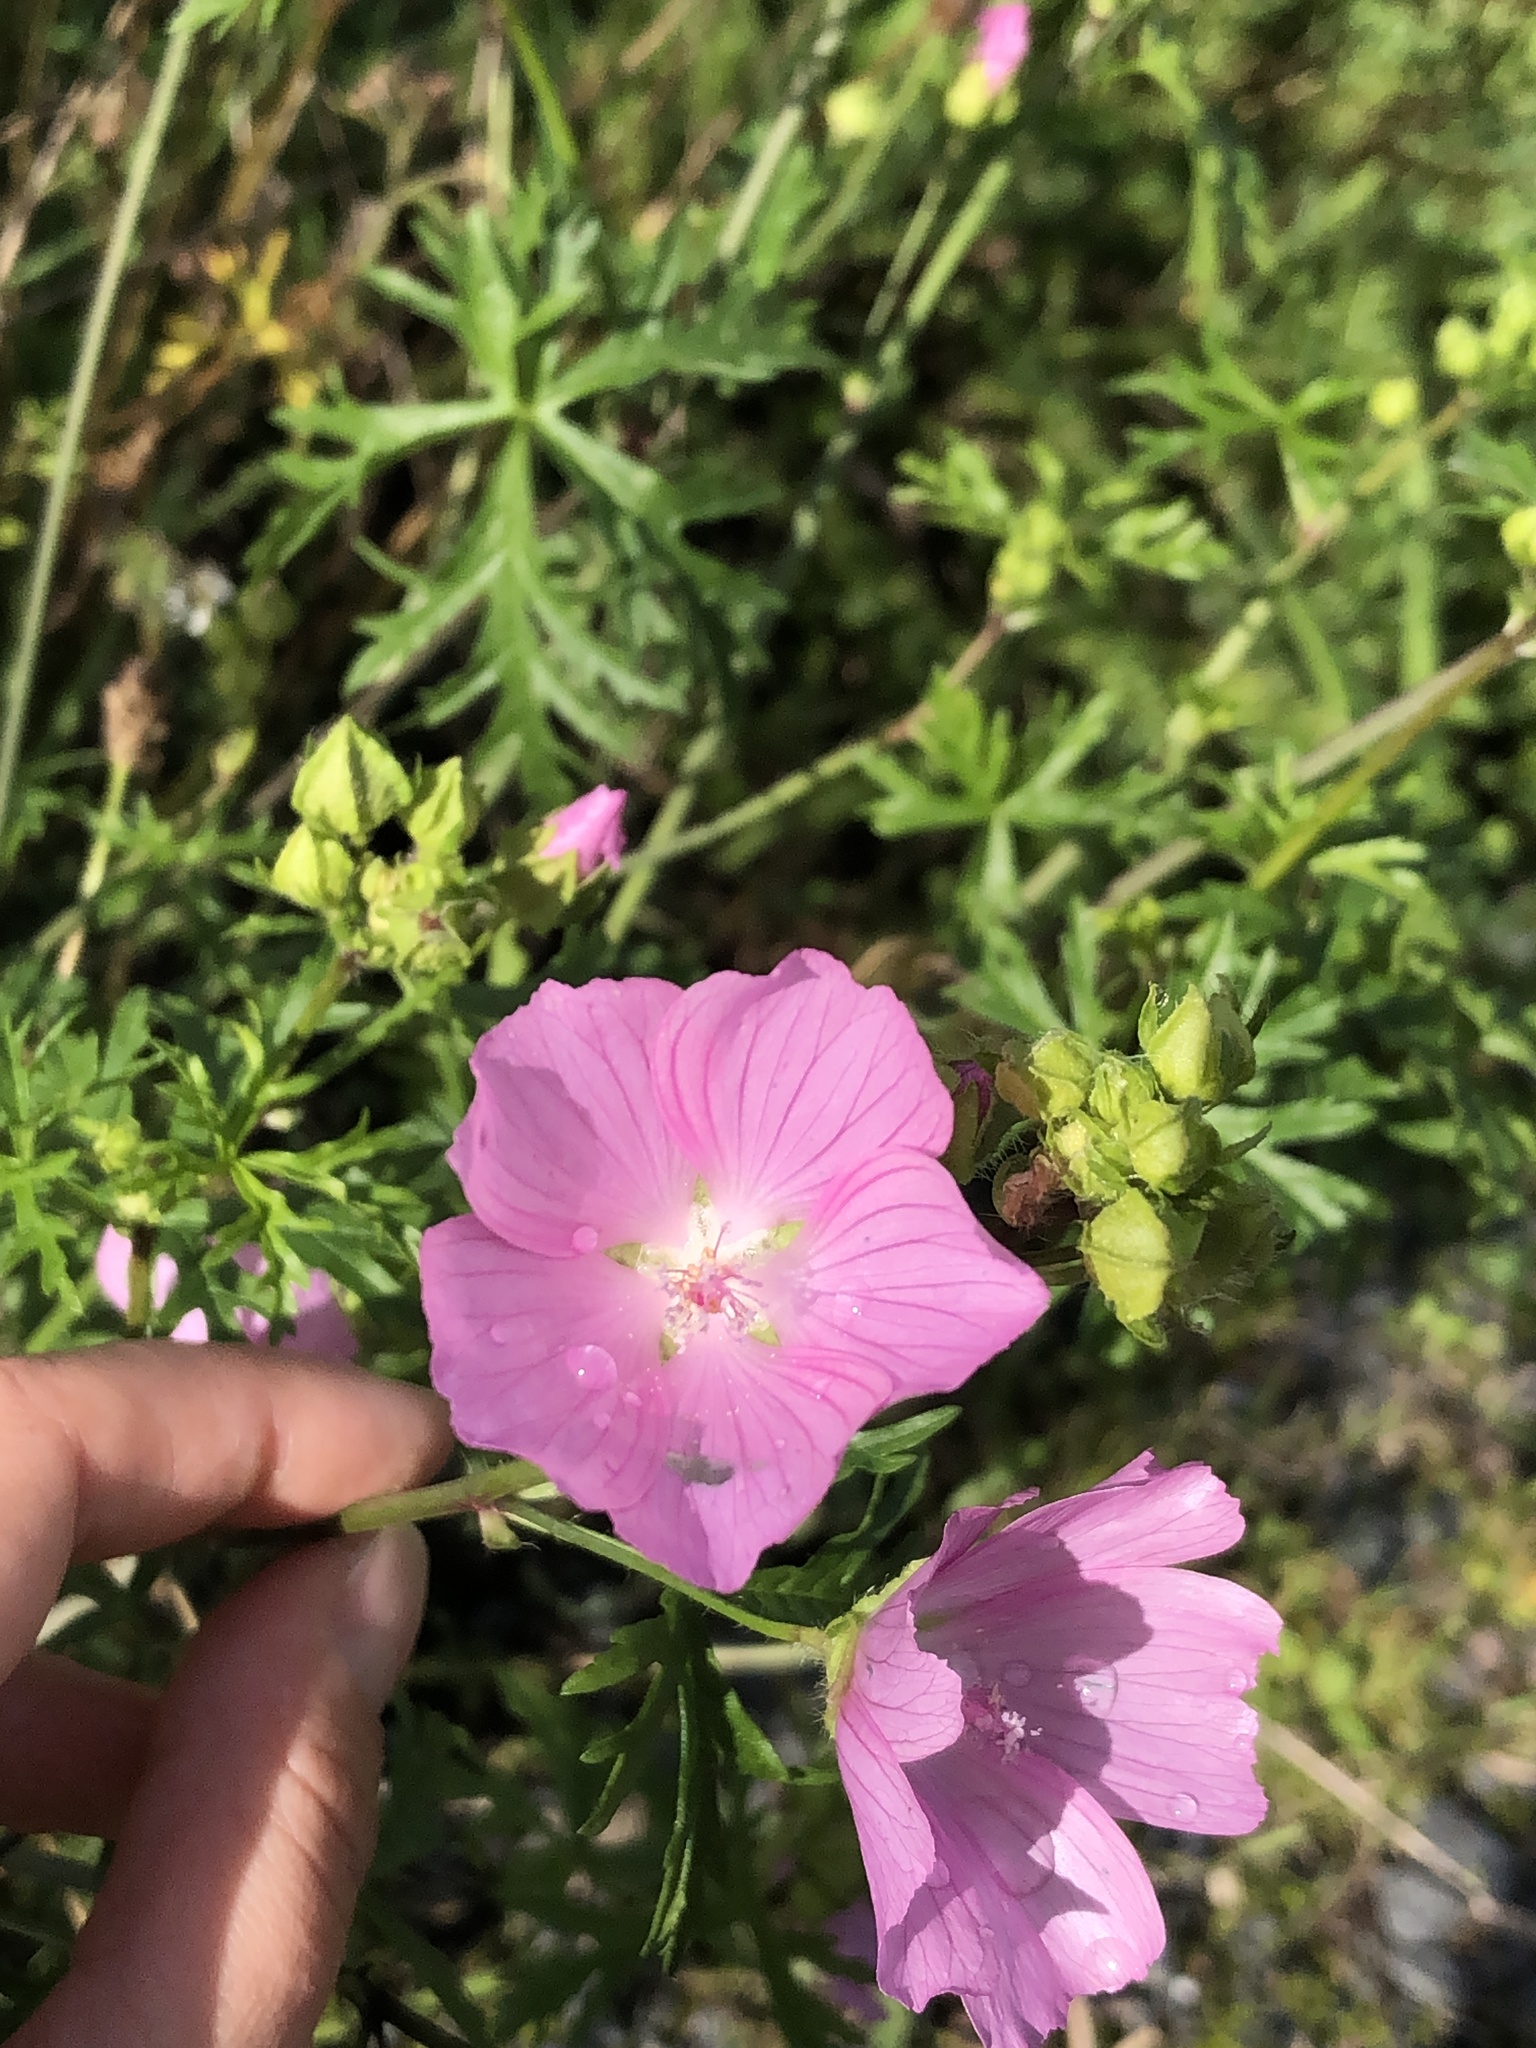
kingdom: Plantae
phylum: Tracheophyta
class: Magnoliopsida
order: Malvales
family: Malvaceae
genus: Malva
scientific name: Malva moschata
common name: Musk mallow
